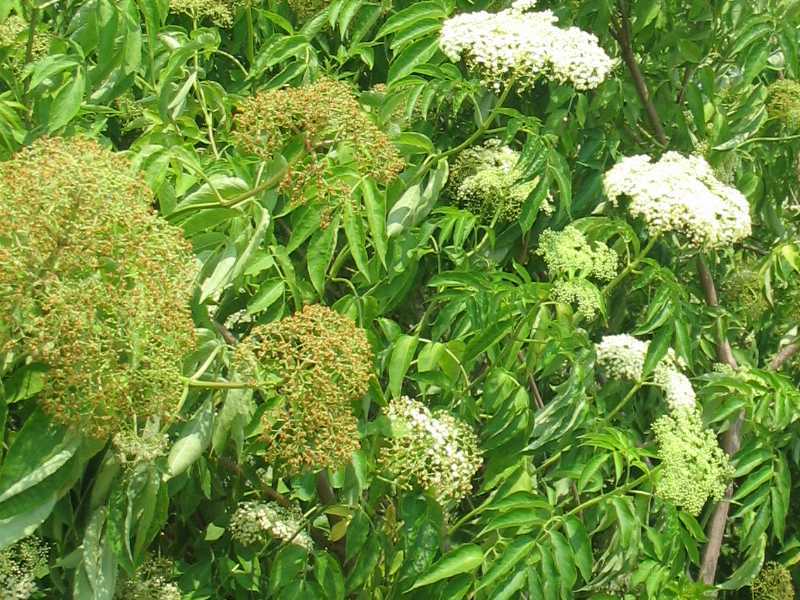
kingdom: Plantae
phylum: Tracheophyta
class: Magnoliopsida
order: Dipsacales
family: Viburnaceae
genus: Sambucus
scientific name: Sambucus canadensis
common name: American elder
